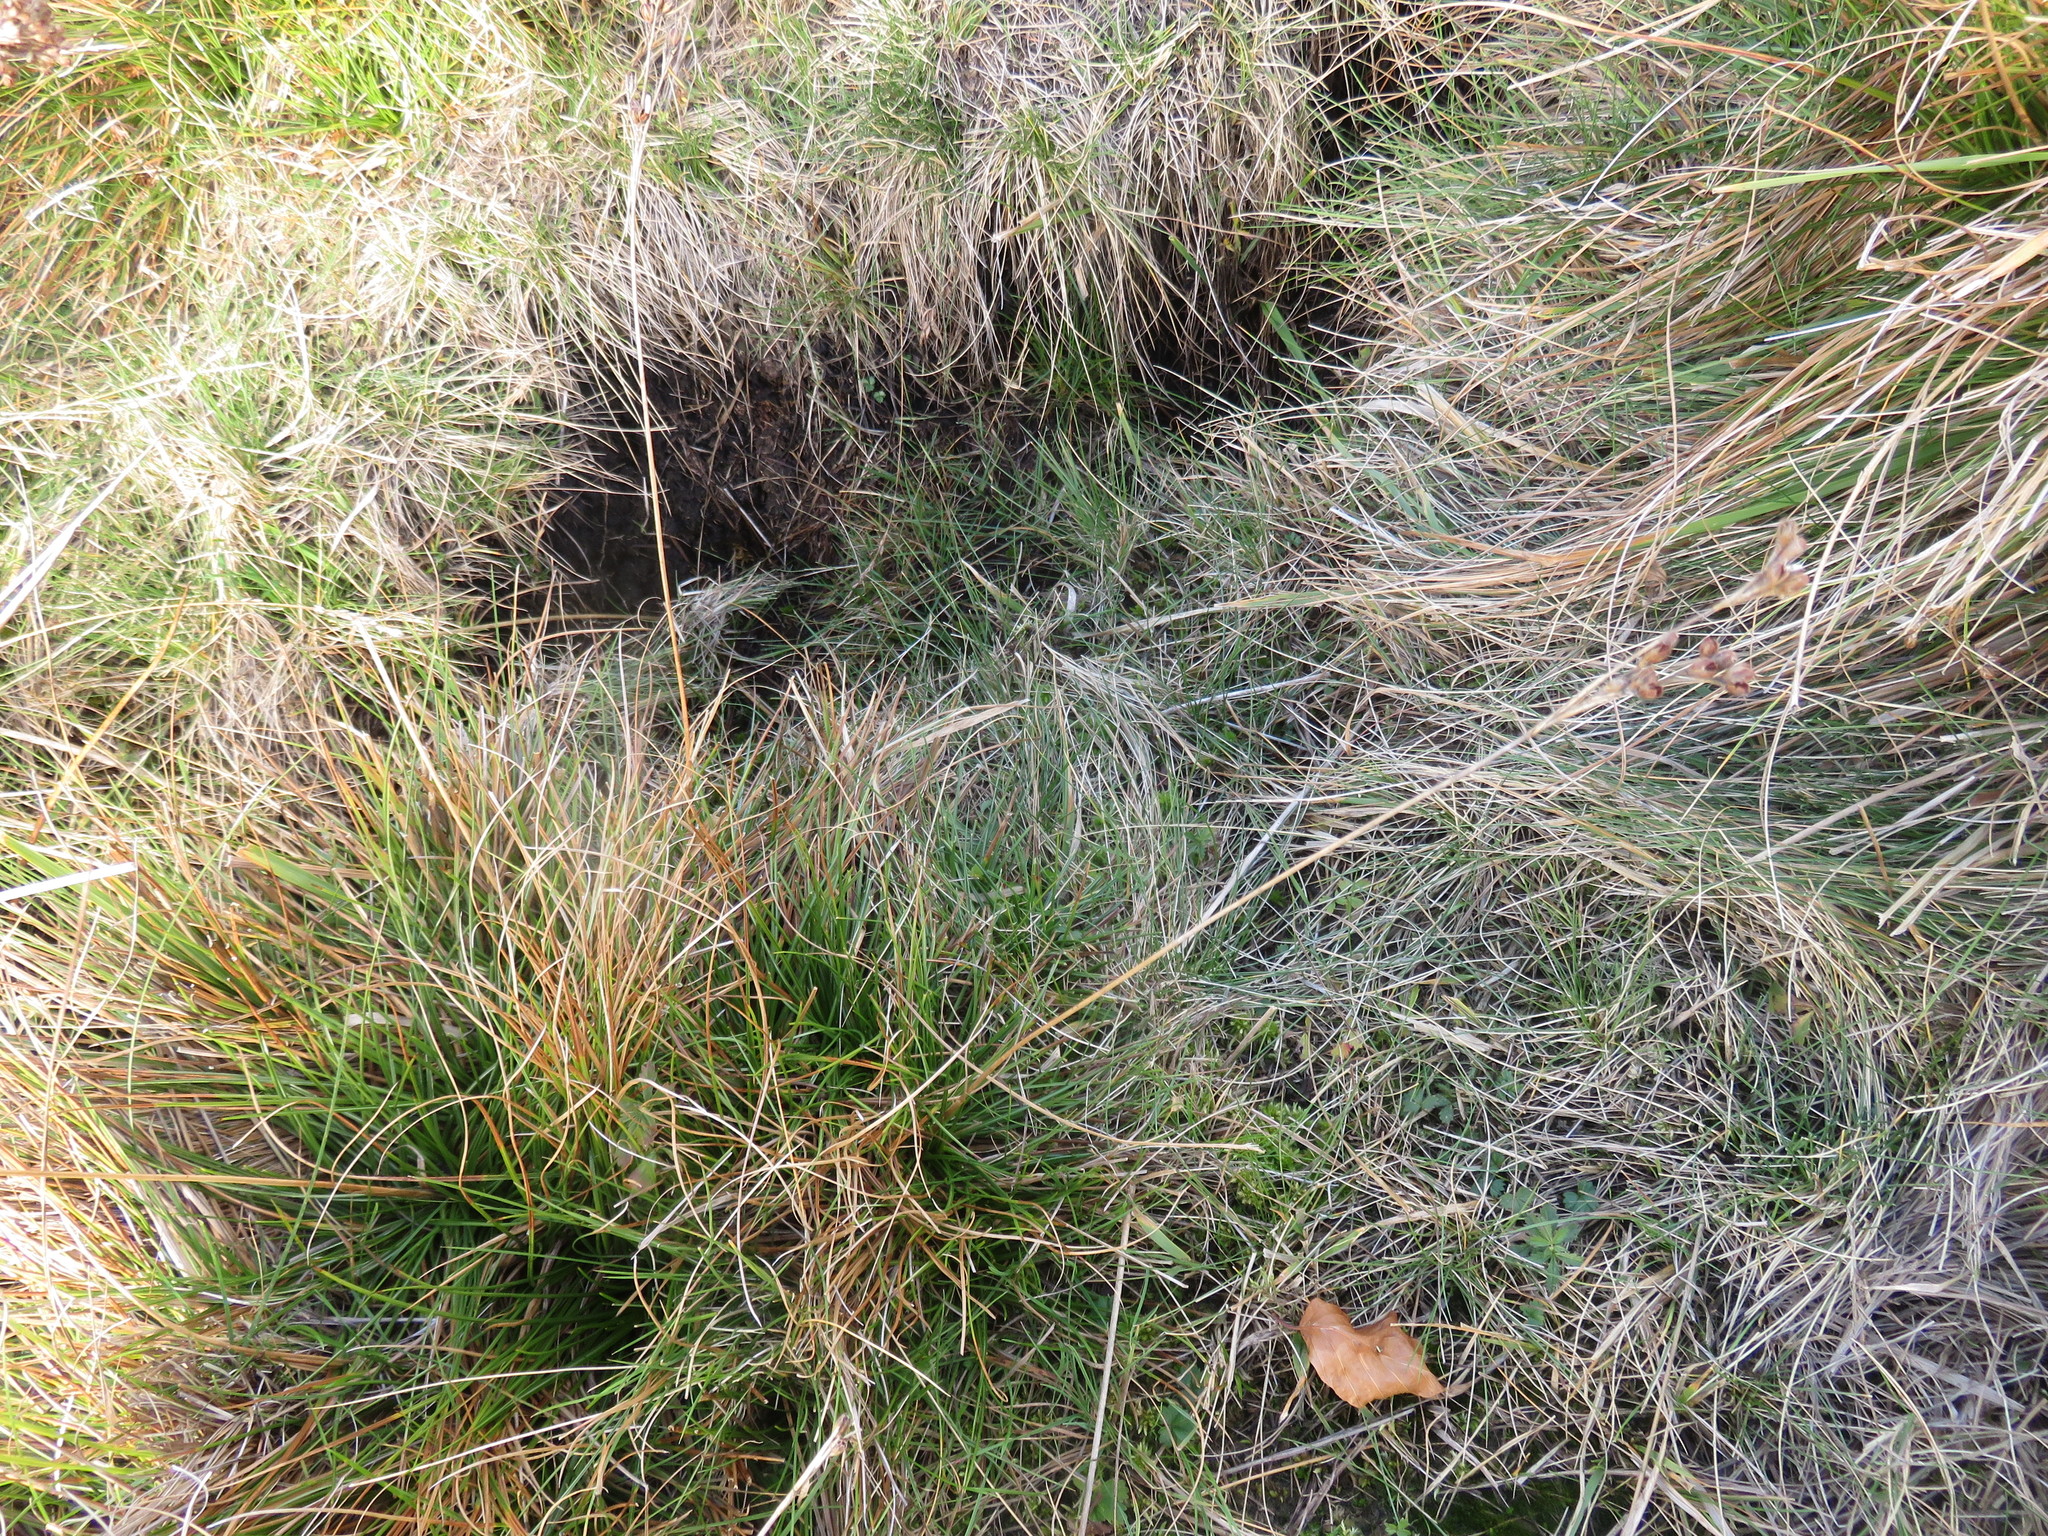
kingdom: Plantae
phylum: Tracheophyta
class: Liliopsida
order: Poales
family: Juncaceae
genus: Juncus
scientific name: Juncus squarrosus
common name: Heath rush
